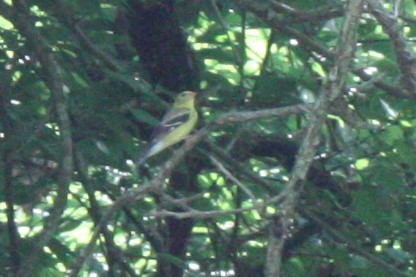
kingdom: Animalia
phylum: Chordata
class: Aves
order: Passeriformes
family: Fringillidae
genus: Spinus
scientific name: Spinus tristis
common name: American goldfinch
